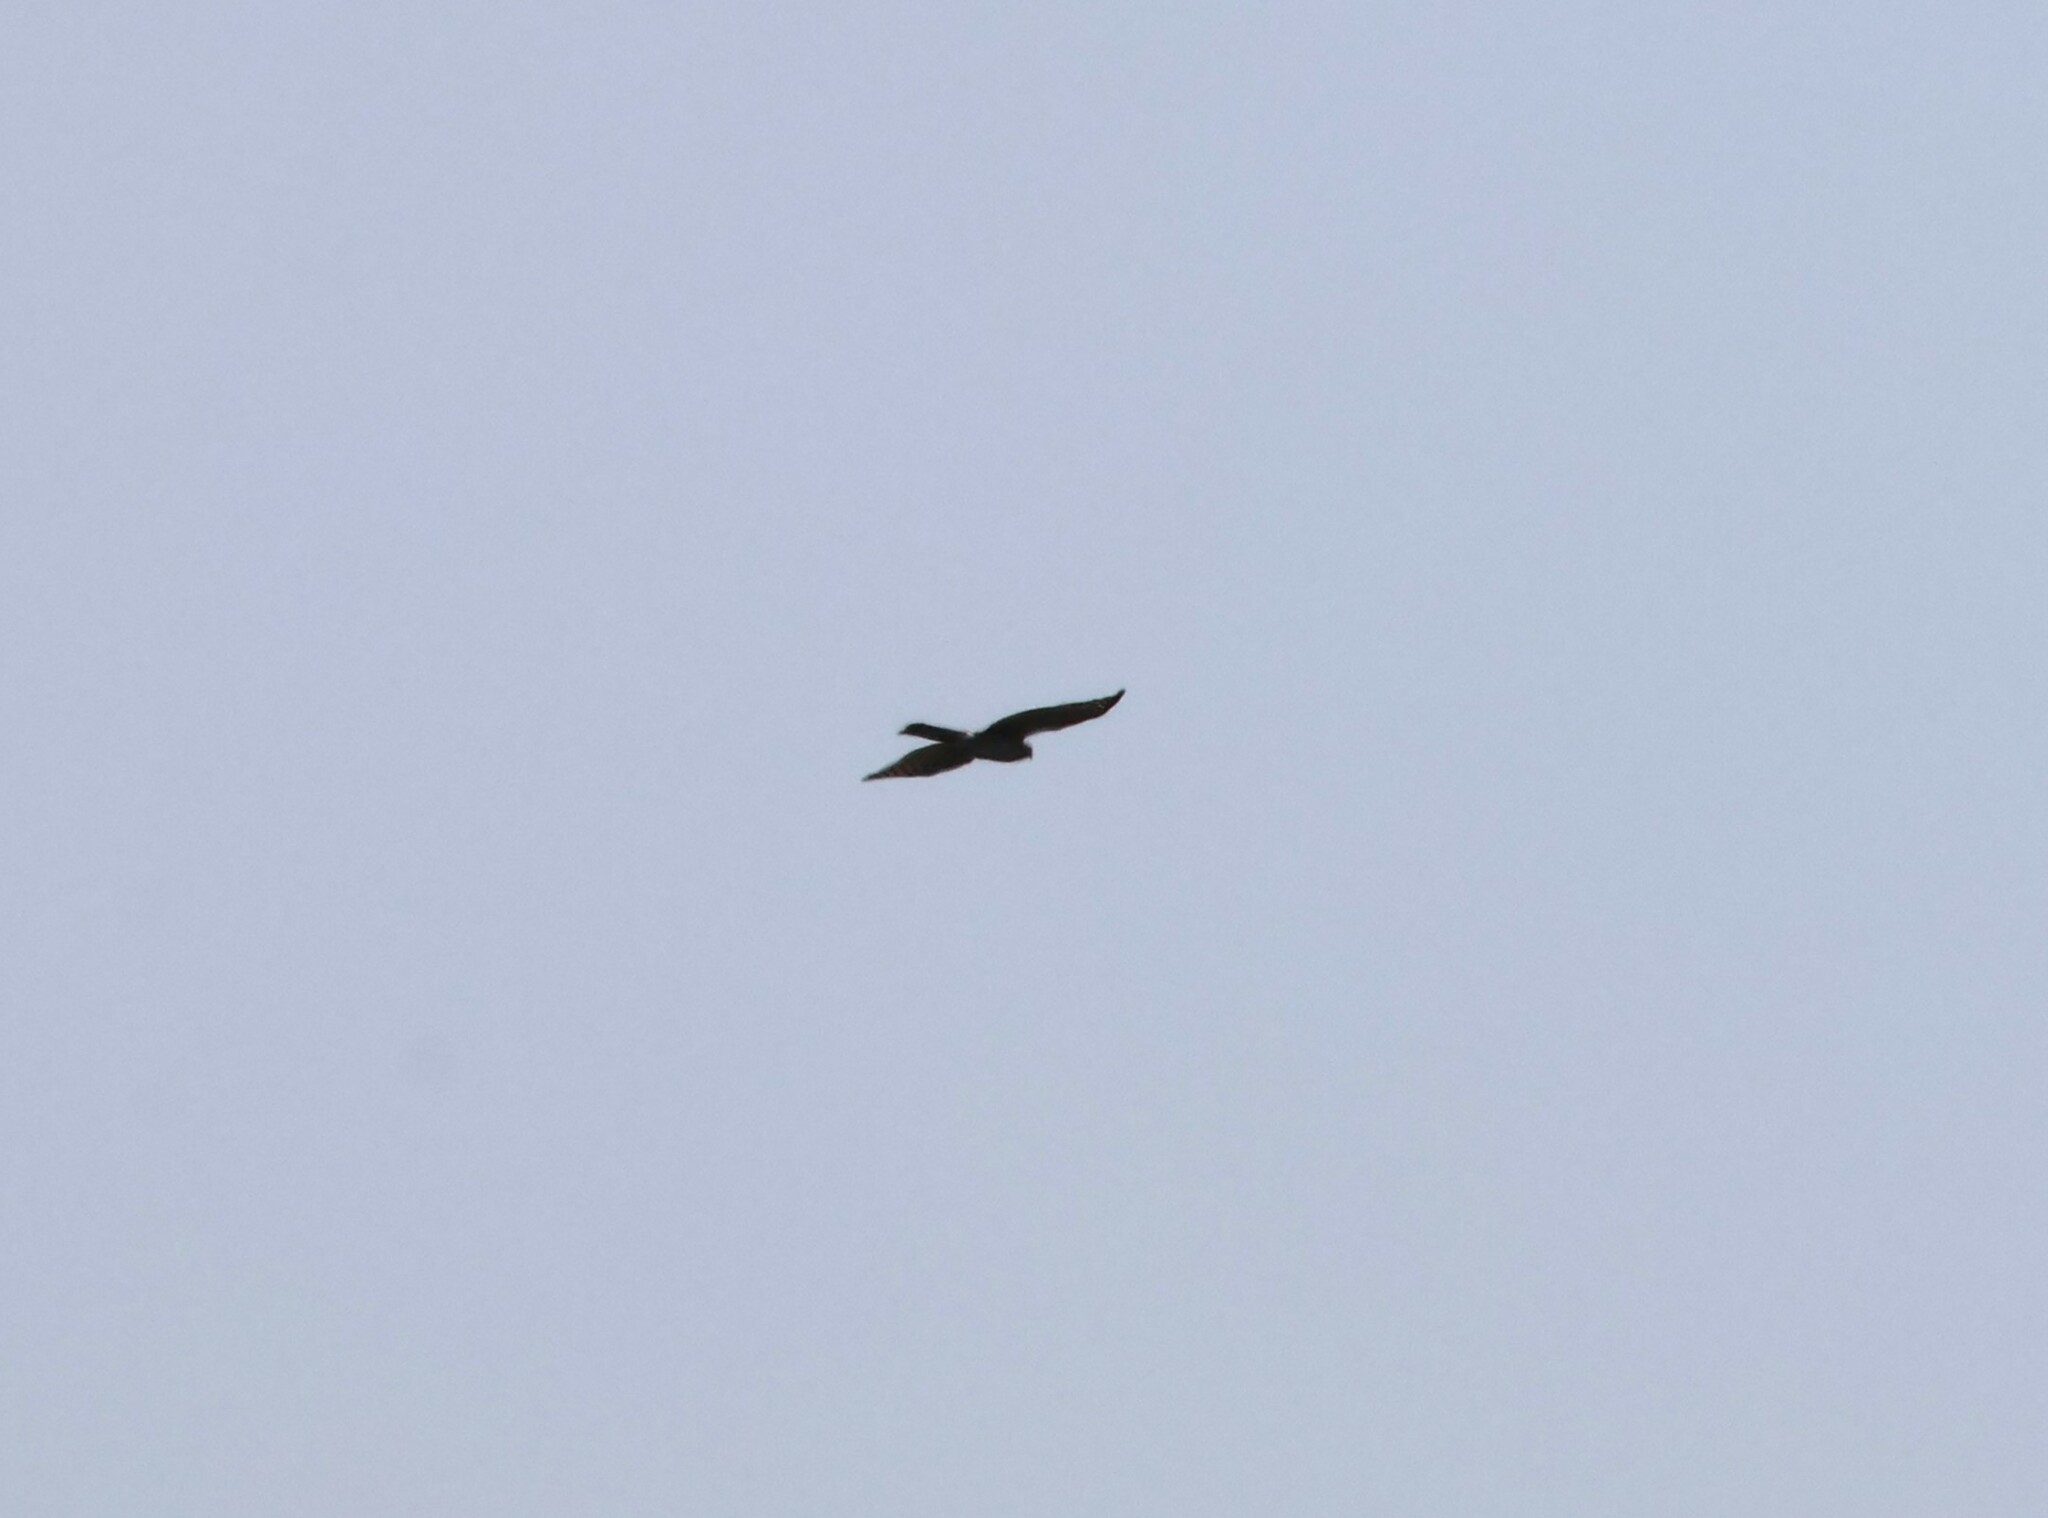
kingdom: Animalia
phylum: Chordata
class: Aves
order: Accipitriformes
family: Accipitridae
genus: Circus
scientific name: Circus cyaneus
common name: Hen harrier
